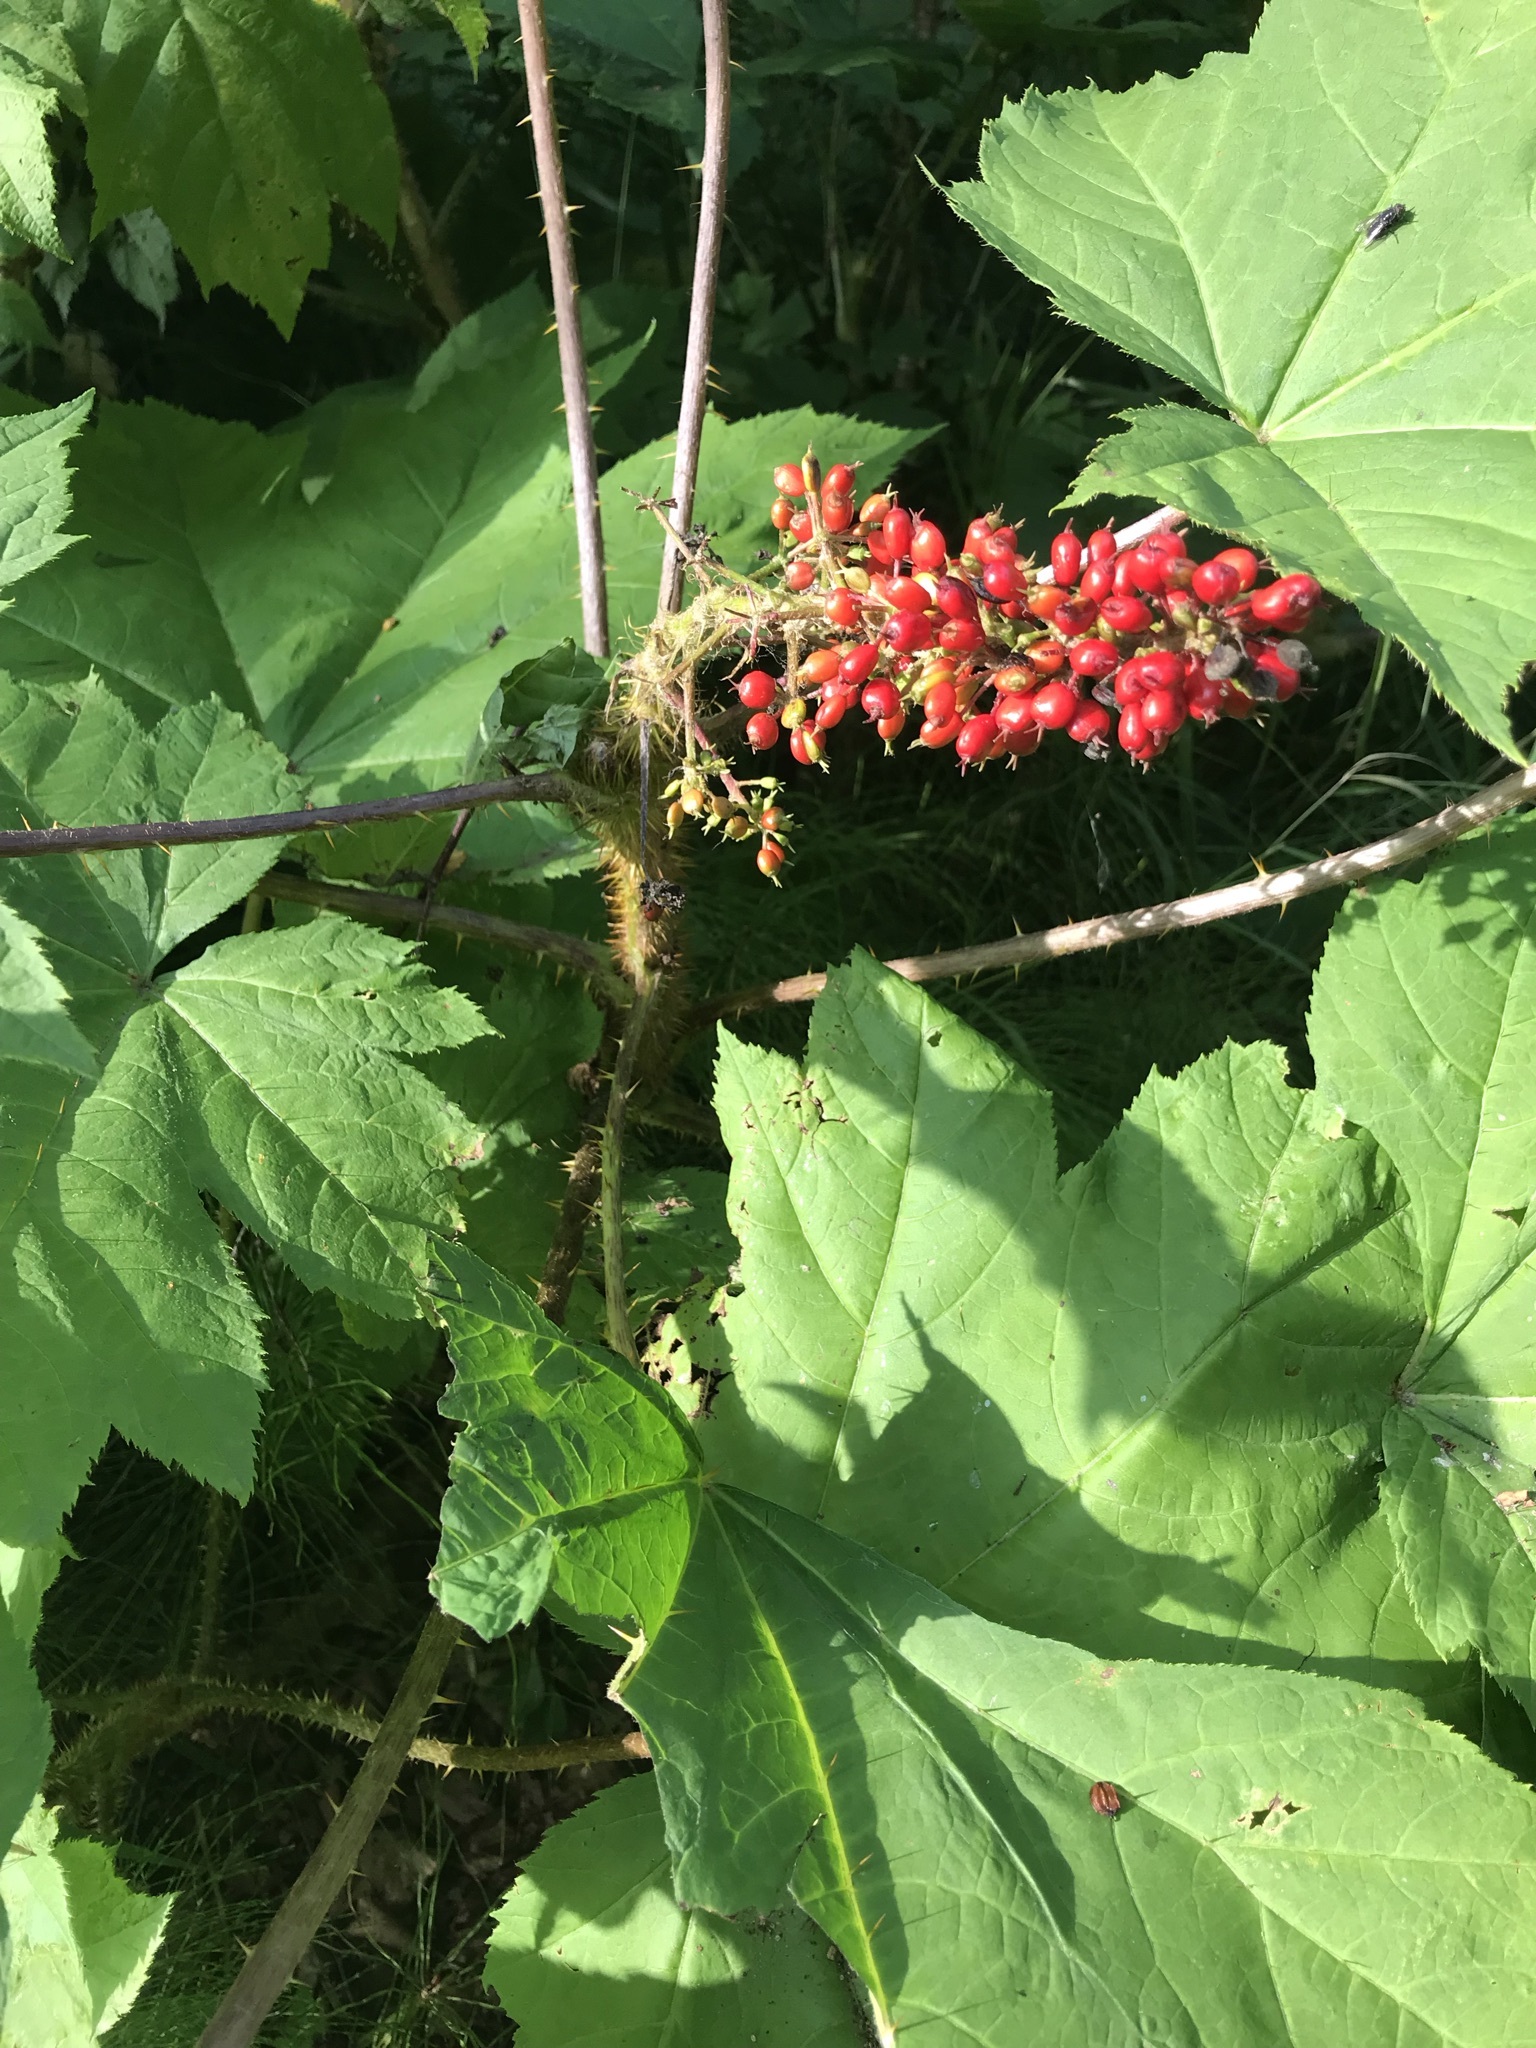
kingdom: Plantae
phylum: Tracheophyta
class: Magnoliopsida
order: Apiales
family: Araliaceae
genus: Oplopanax
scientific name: Oplopanax horridus
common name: Devil's walking-stick
